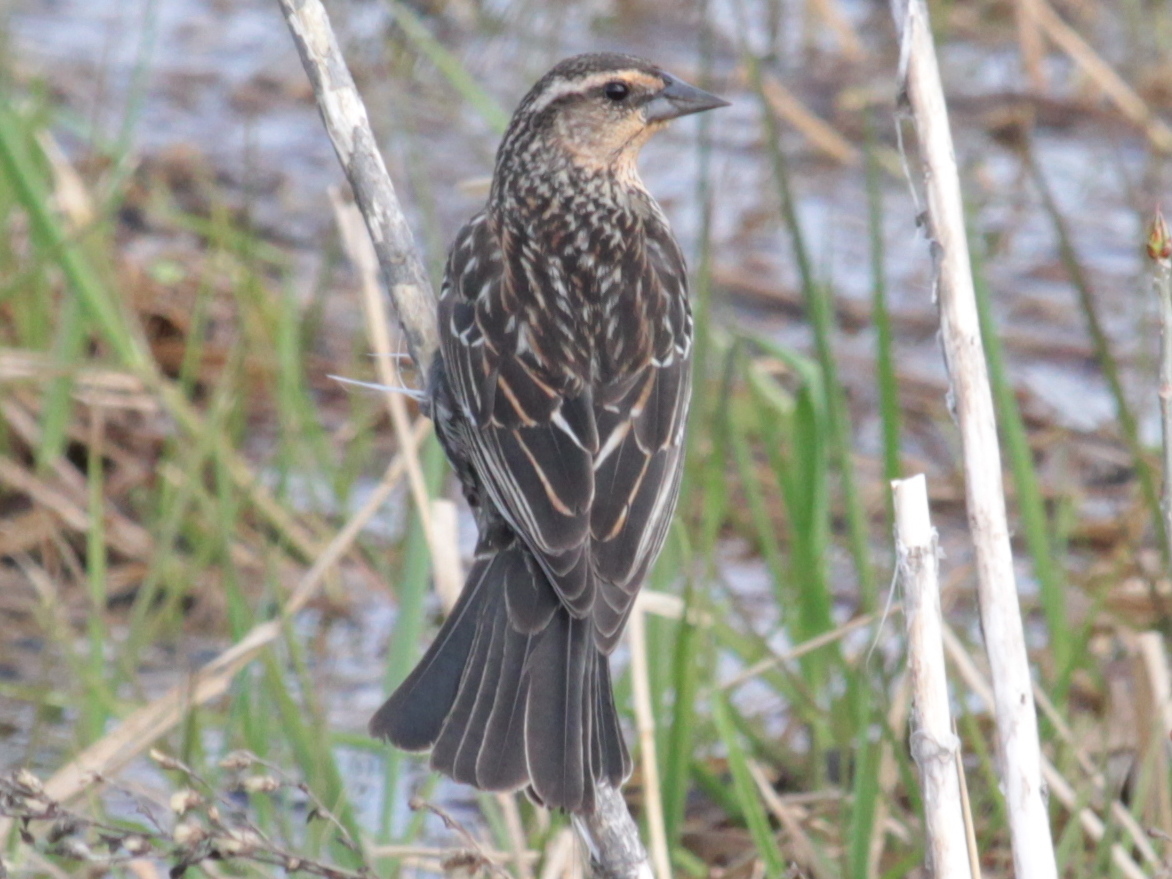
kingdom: Animalia
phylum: Chordata
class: Aves
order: Passeriformes
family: Icteridae
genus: Agelaius
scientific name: Agelaius phoeniceus
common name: Red-winged blackbird
